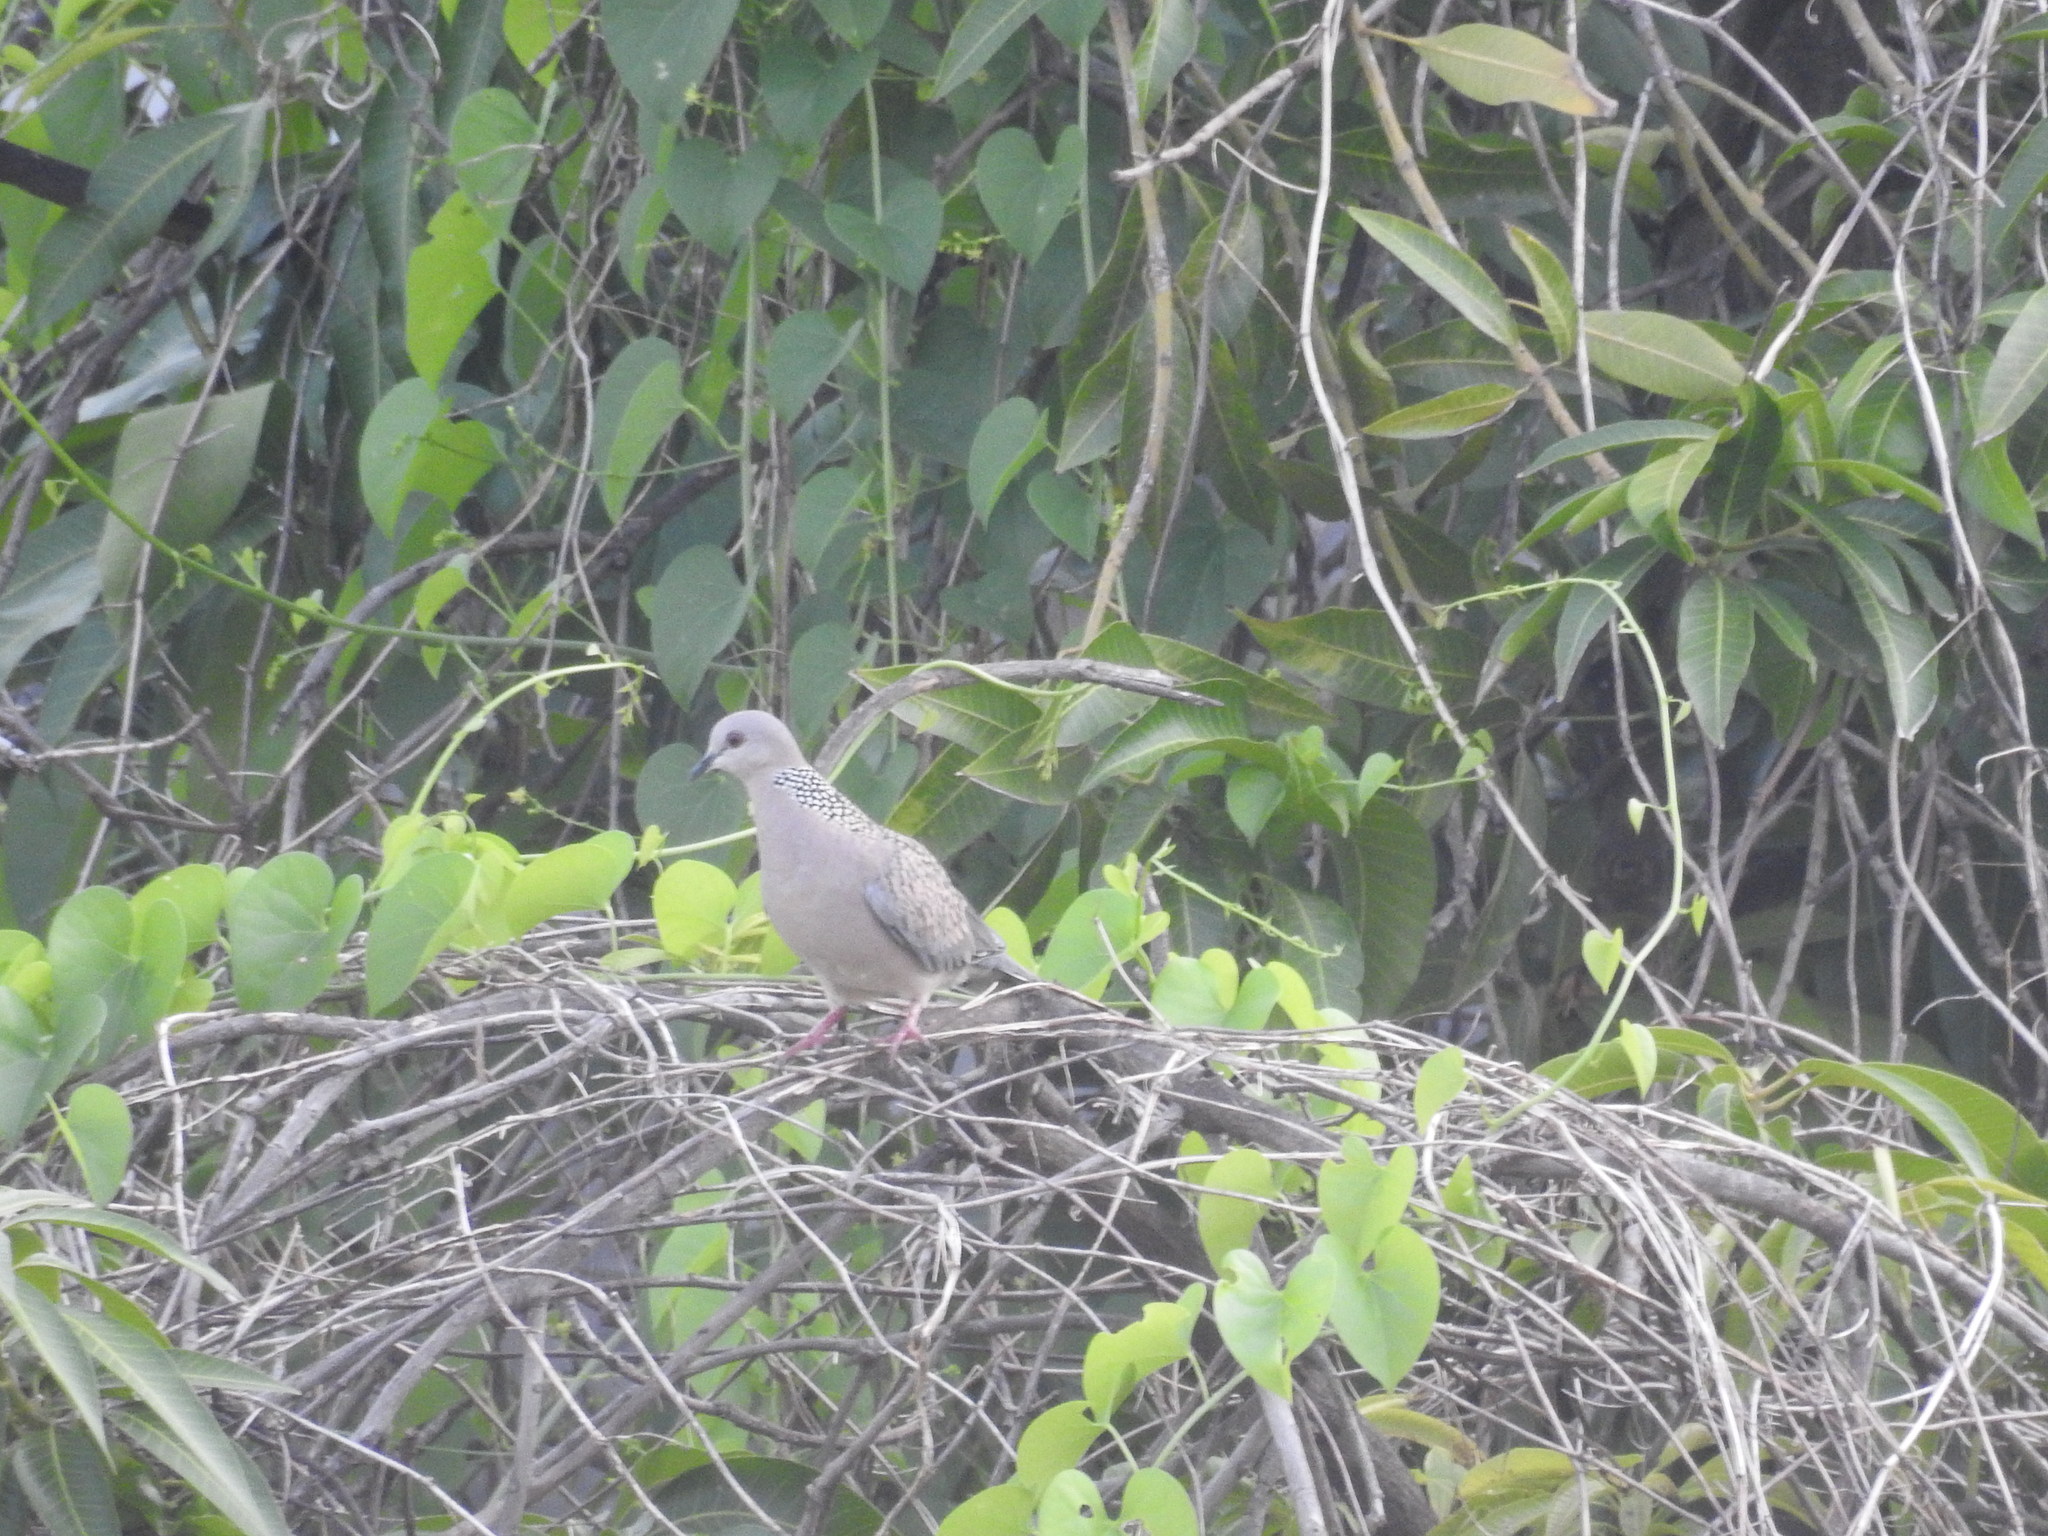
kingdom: Animalia
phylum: Chordata
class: Aves
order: Columbiformes
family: Columbidae
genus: Spilopelia
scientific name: Spilopelia chinensis
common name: Spotted dove
